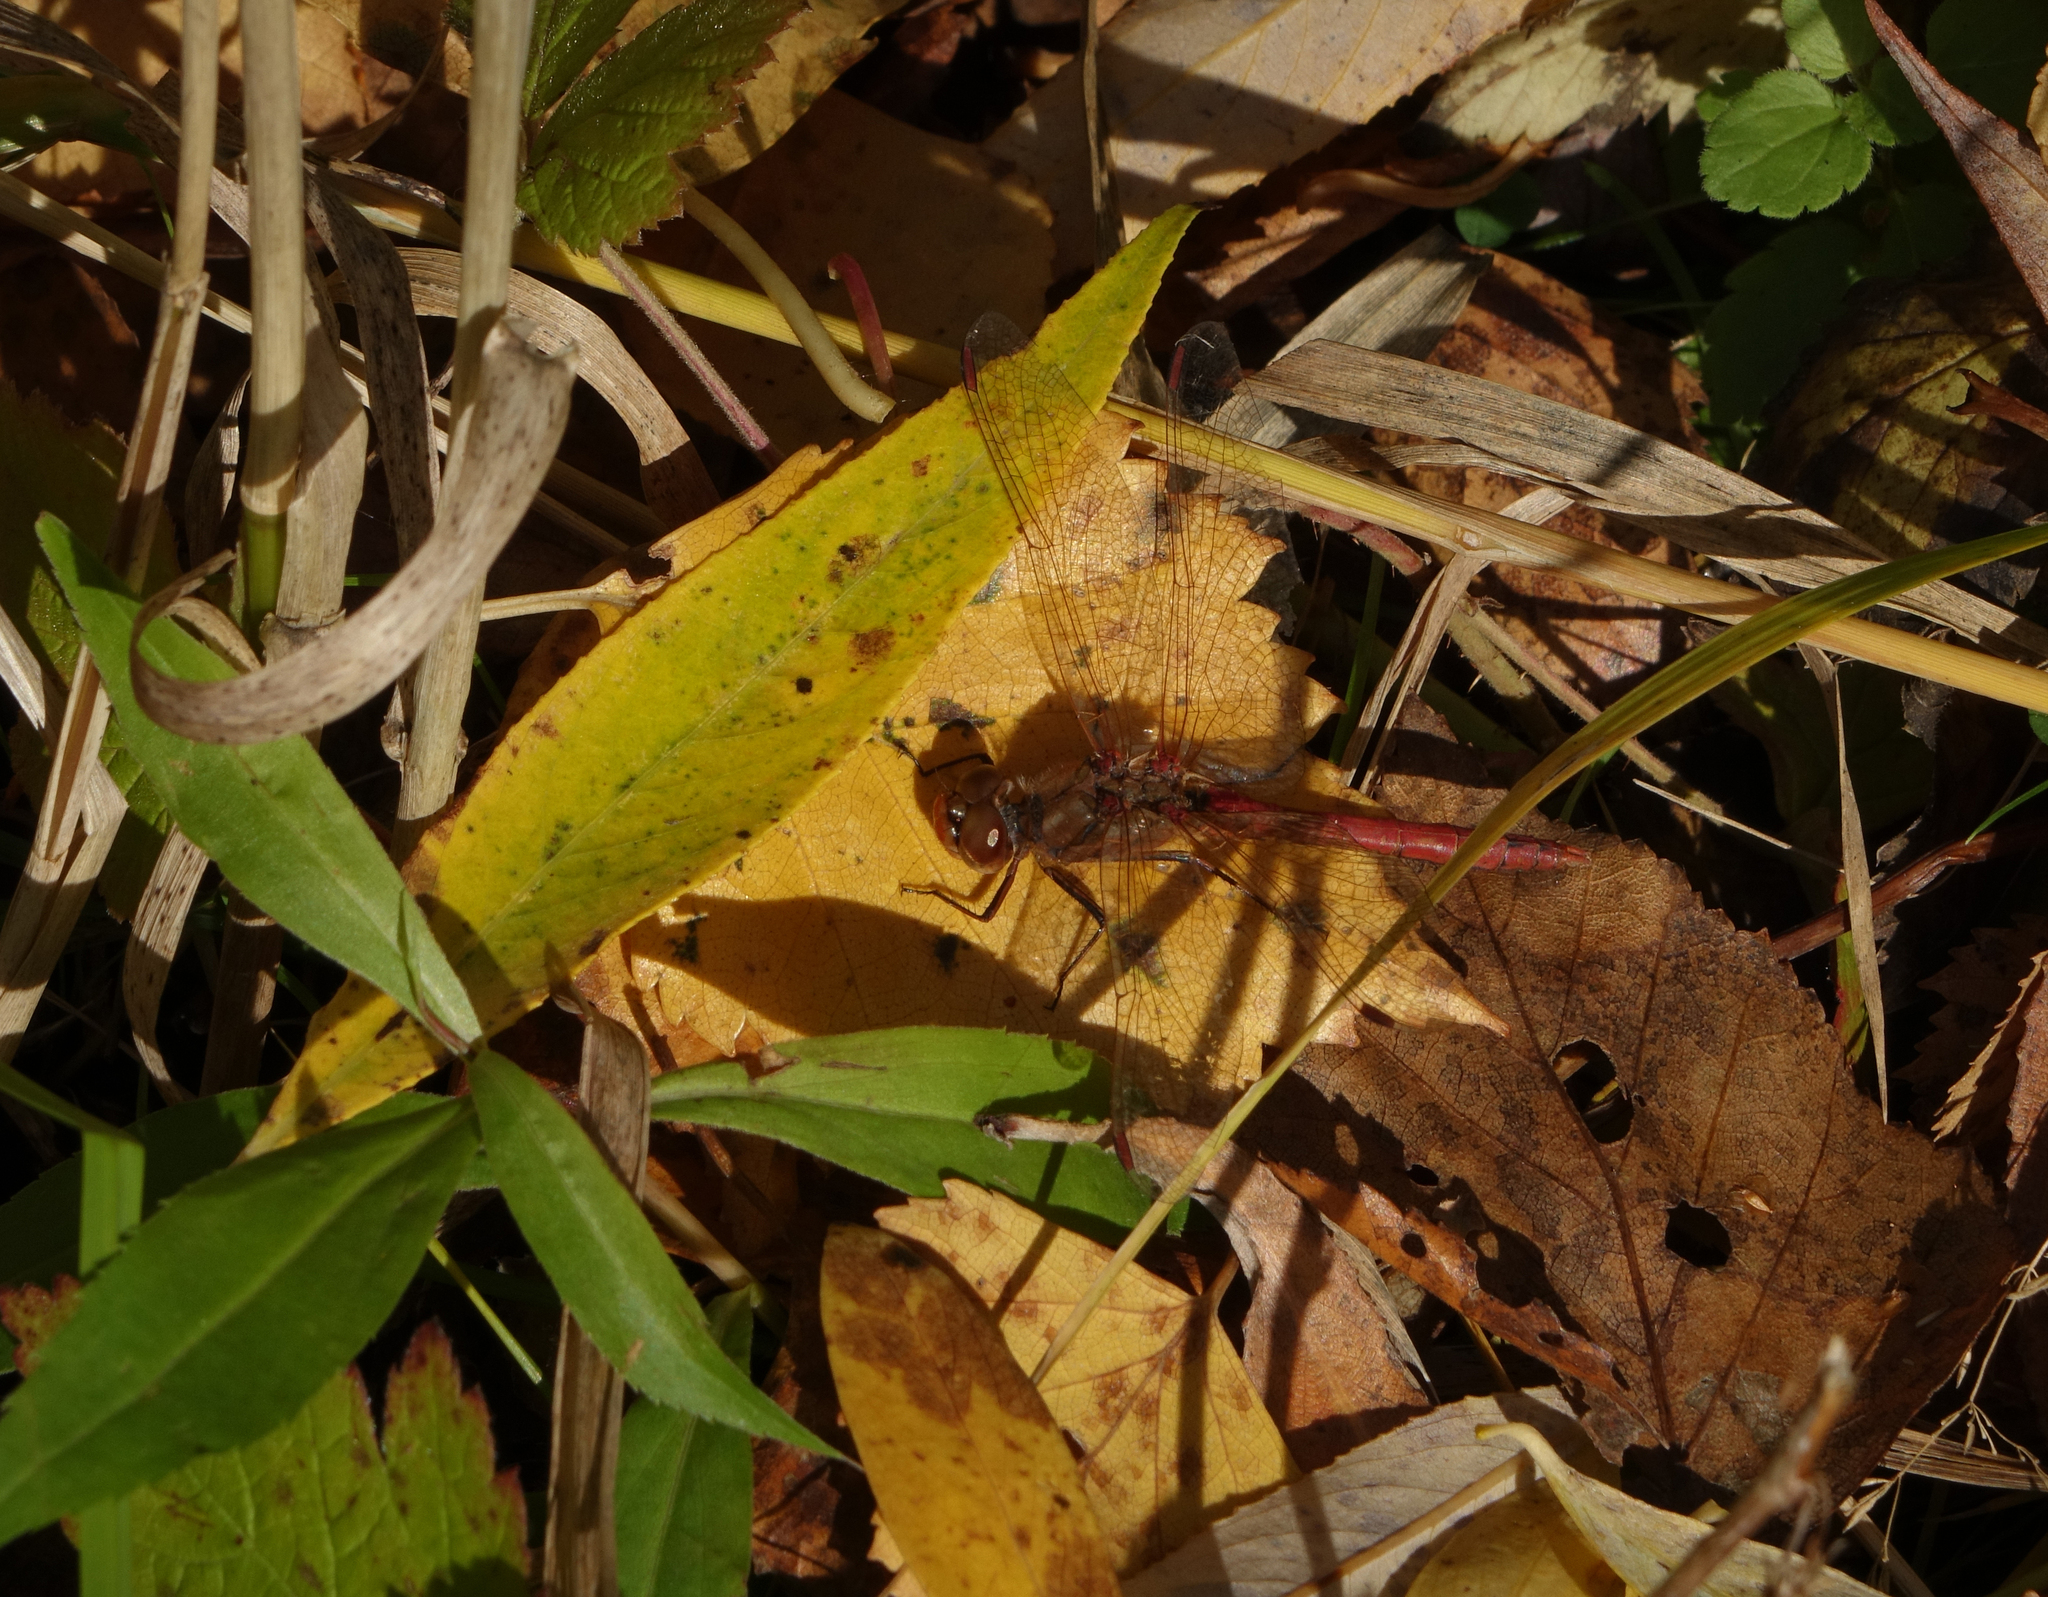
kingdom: Animalia
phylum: Arthropoda
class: Insecta
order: Odonata
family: Libellulidae
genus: Sympetrum
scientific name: Sympetrum vulgatum
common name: Vagrant darter
